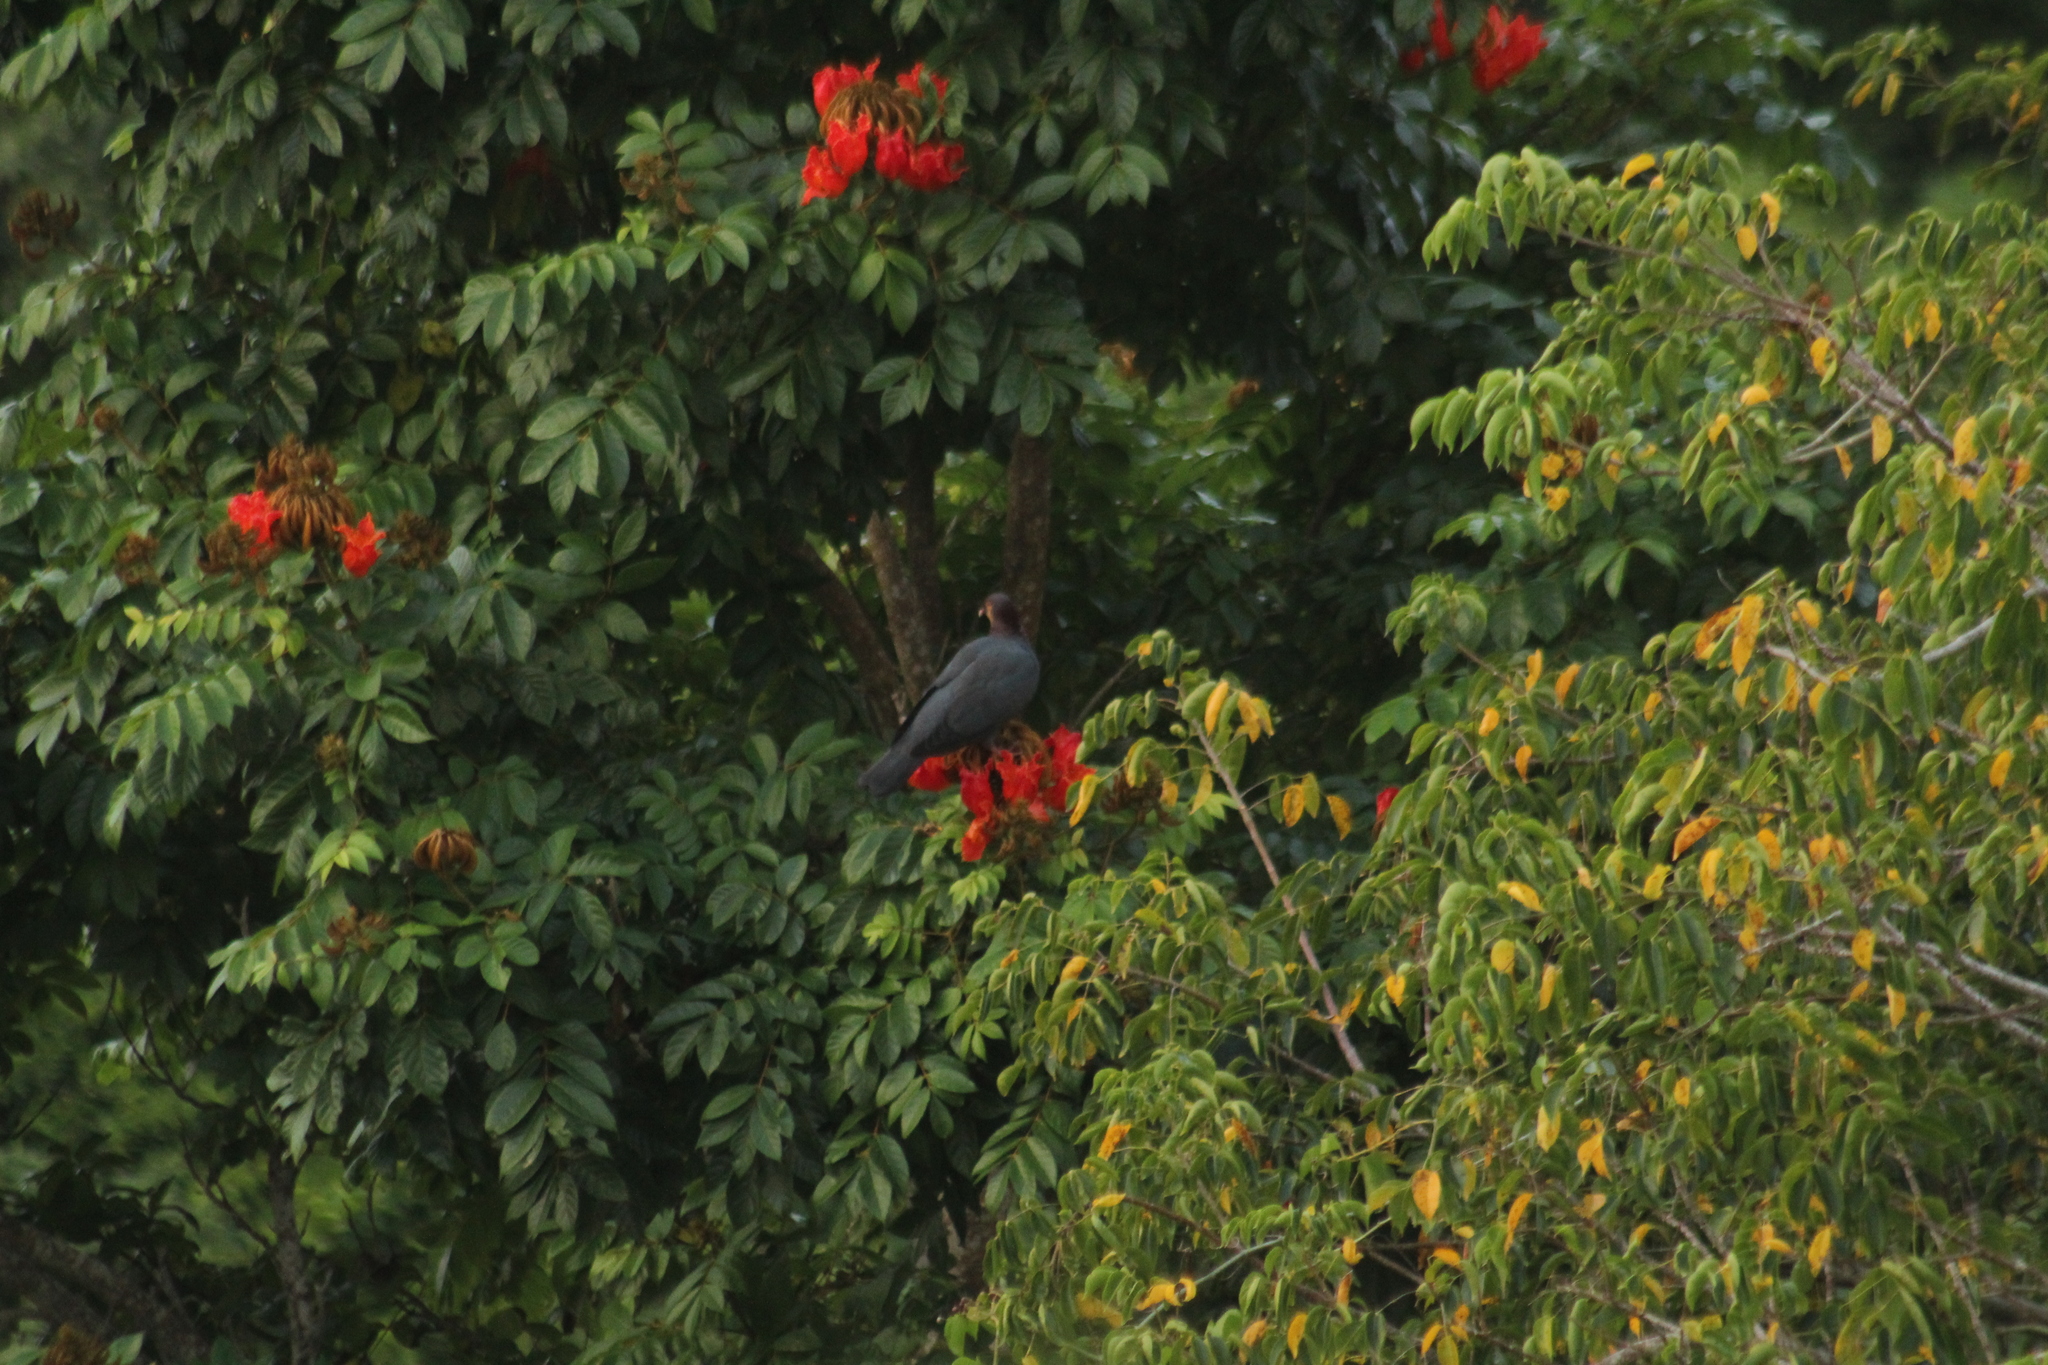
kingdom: Animalia
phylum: Chordata
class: Aves
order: Columbiformes
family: Columbidae
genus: Patagioenas
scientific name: Patagioenas squamosa
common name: Scaly-naped pigeon
